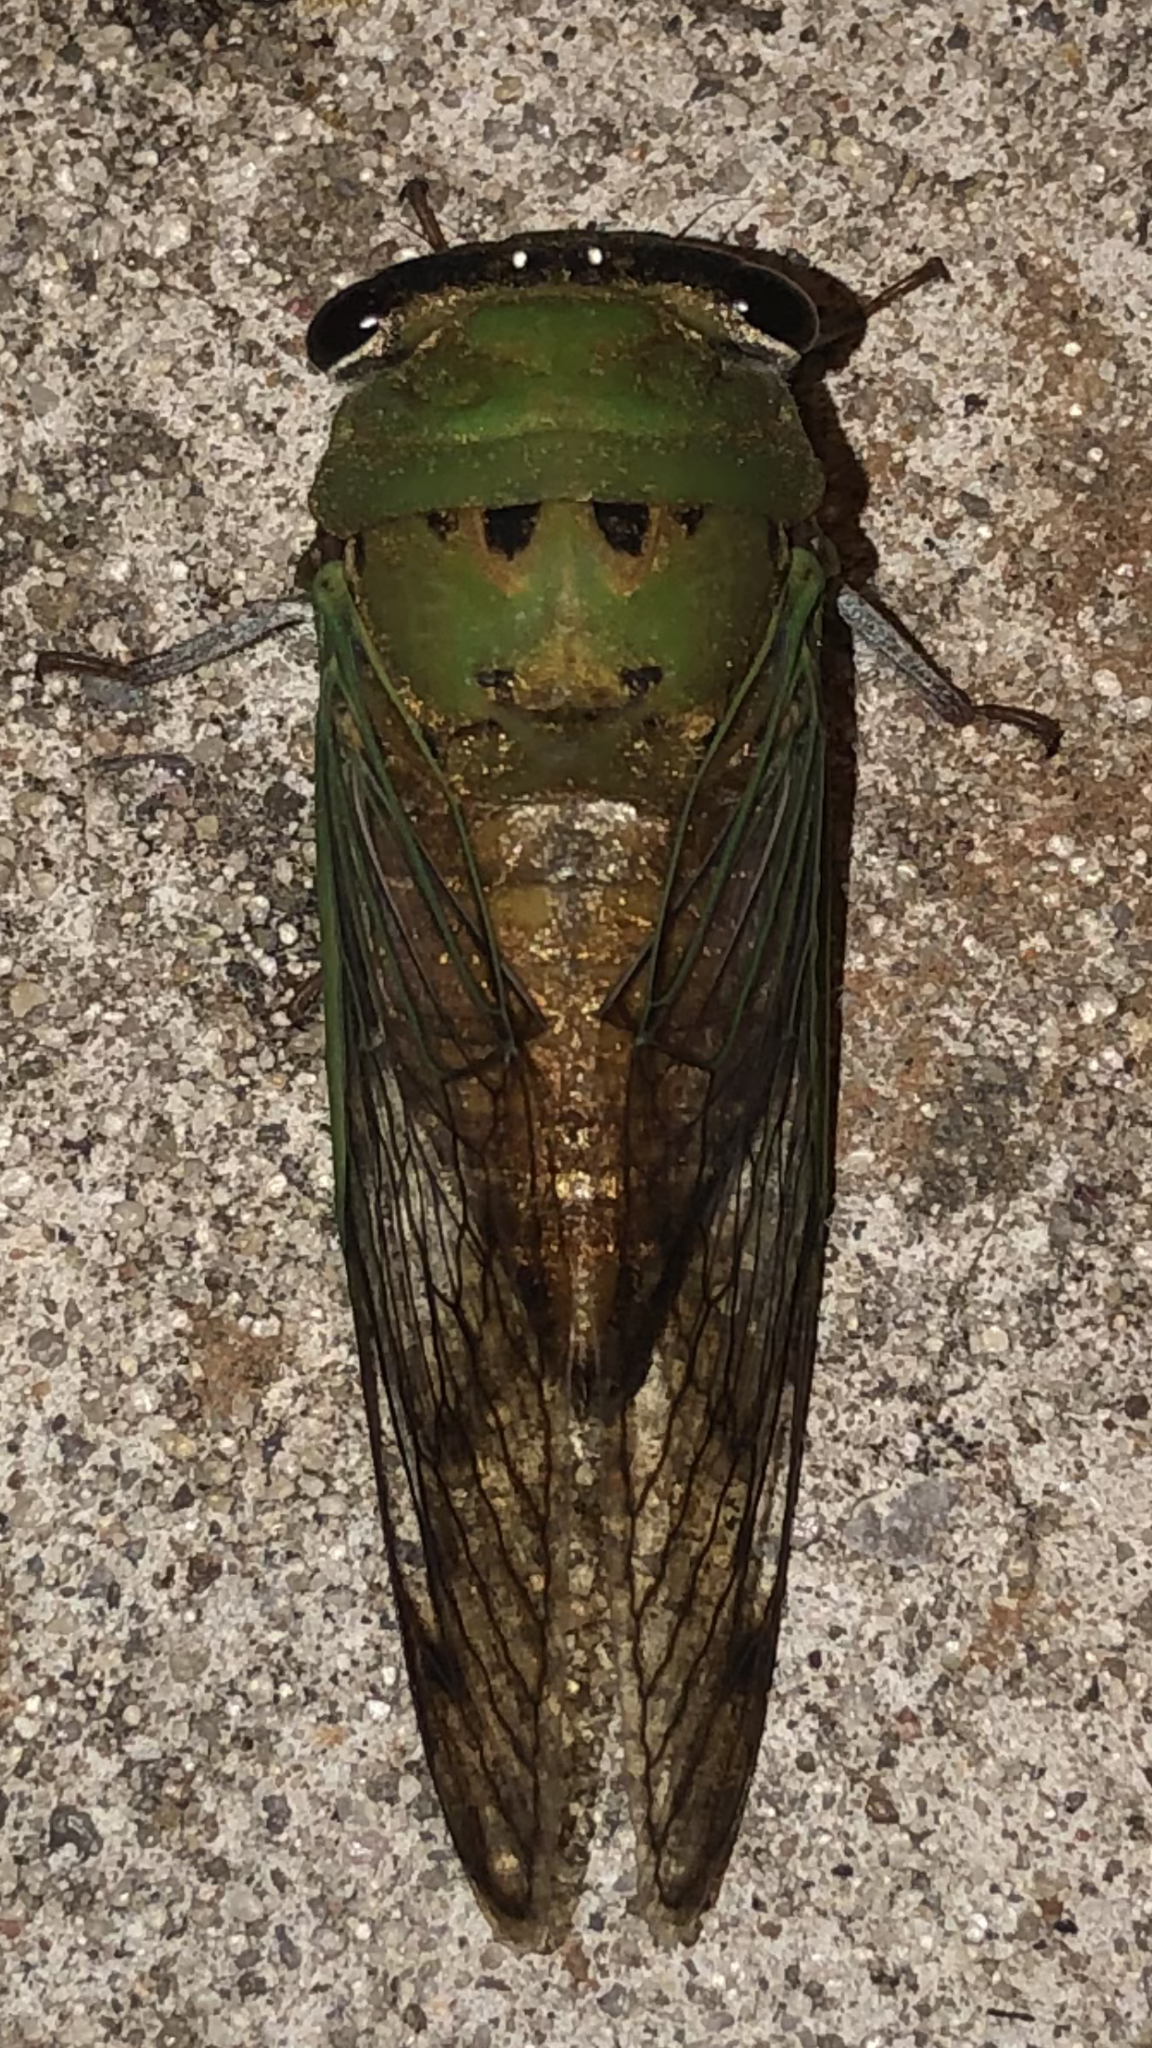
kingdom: Animalia
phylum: Arthropoda
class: Insecta
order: Hemiptera
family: Cicadidae
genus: Neotibicen
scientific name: Neotibicen superbus
